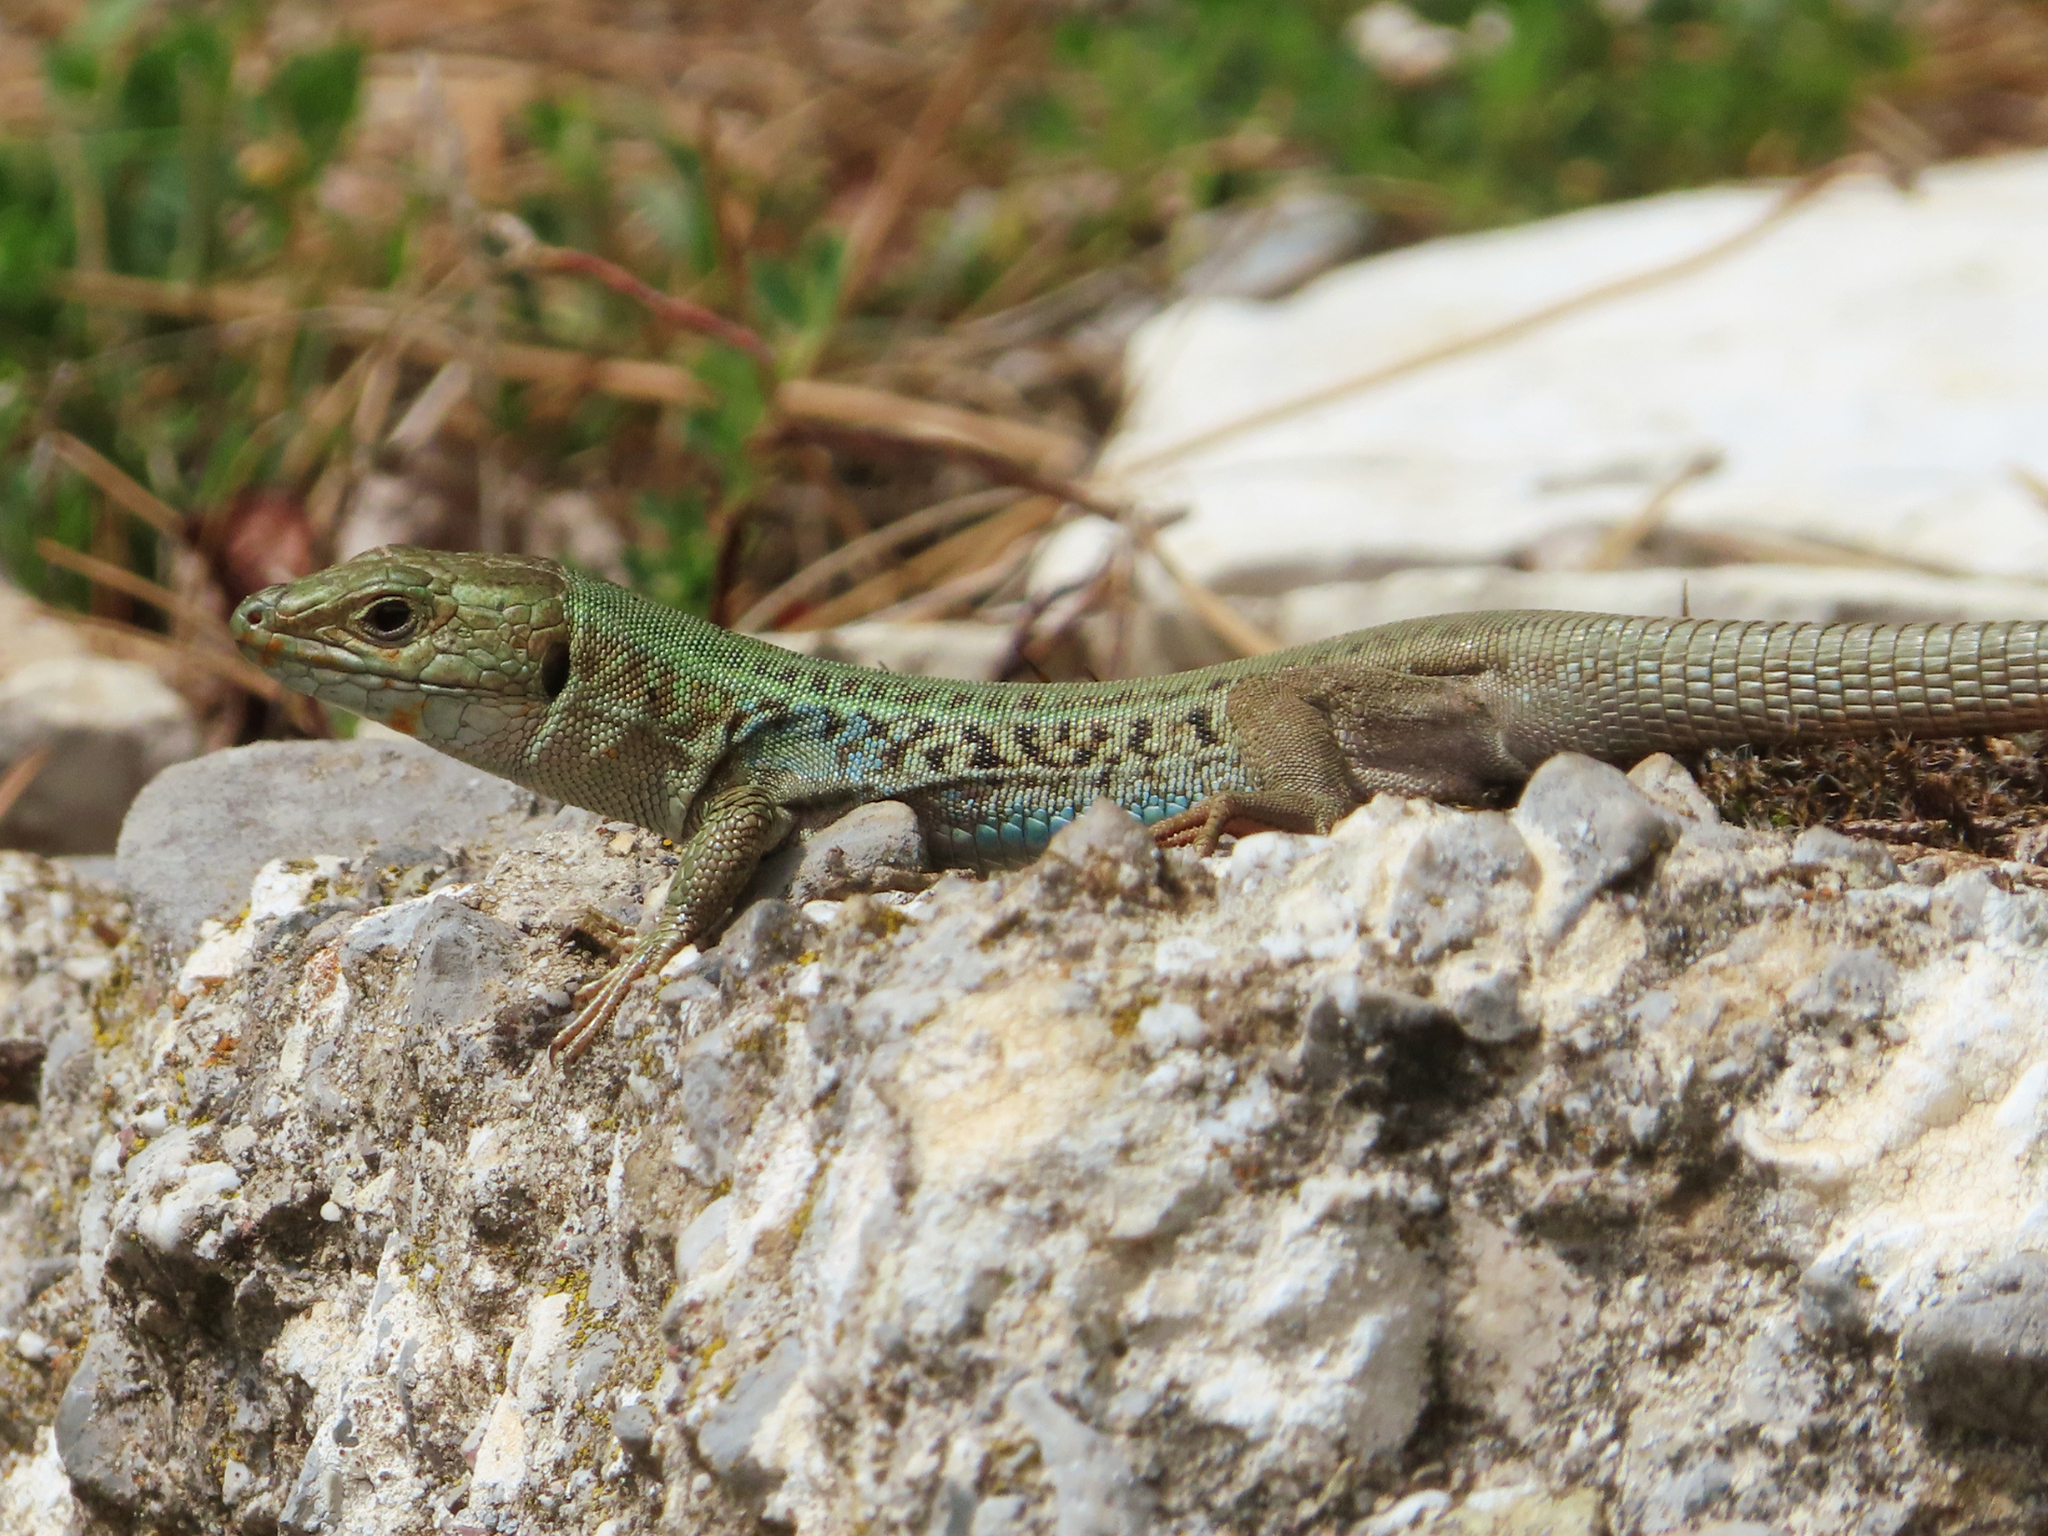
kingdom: Animalia
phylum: Chordata
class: Squamata
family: Lacertidae
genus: Podarcis
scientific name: Podarcis peloponnesiacus
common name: Peloponnese wall lizard
